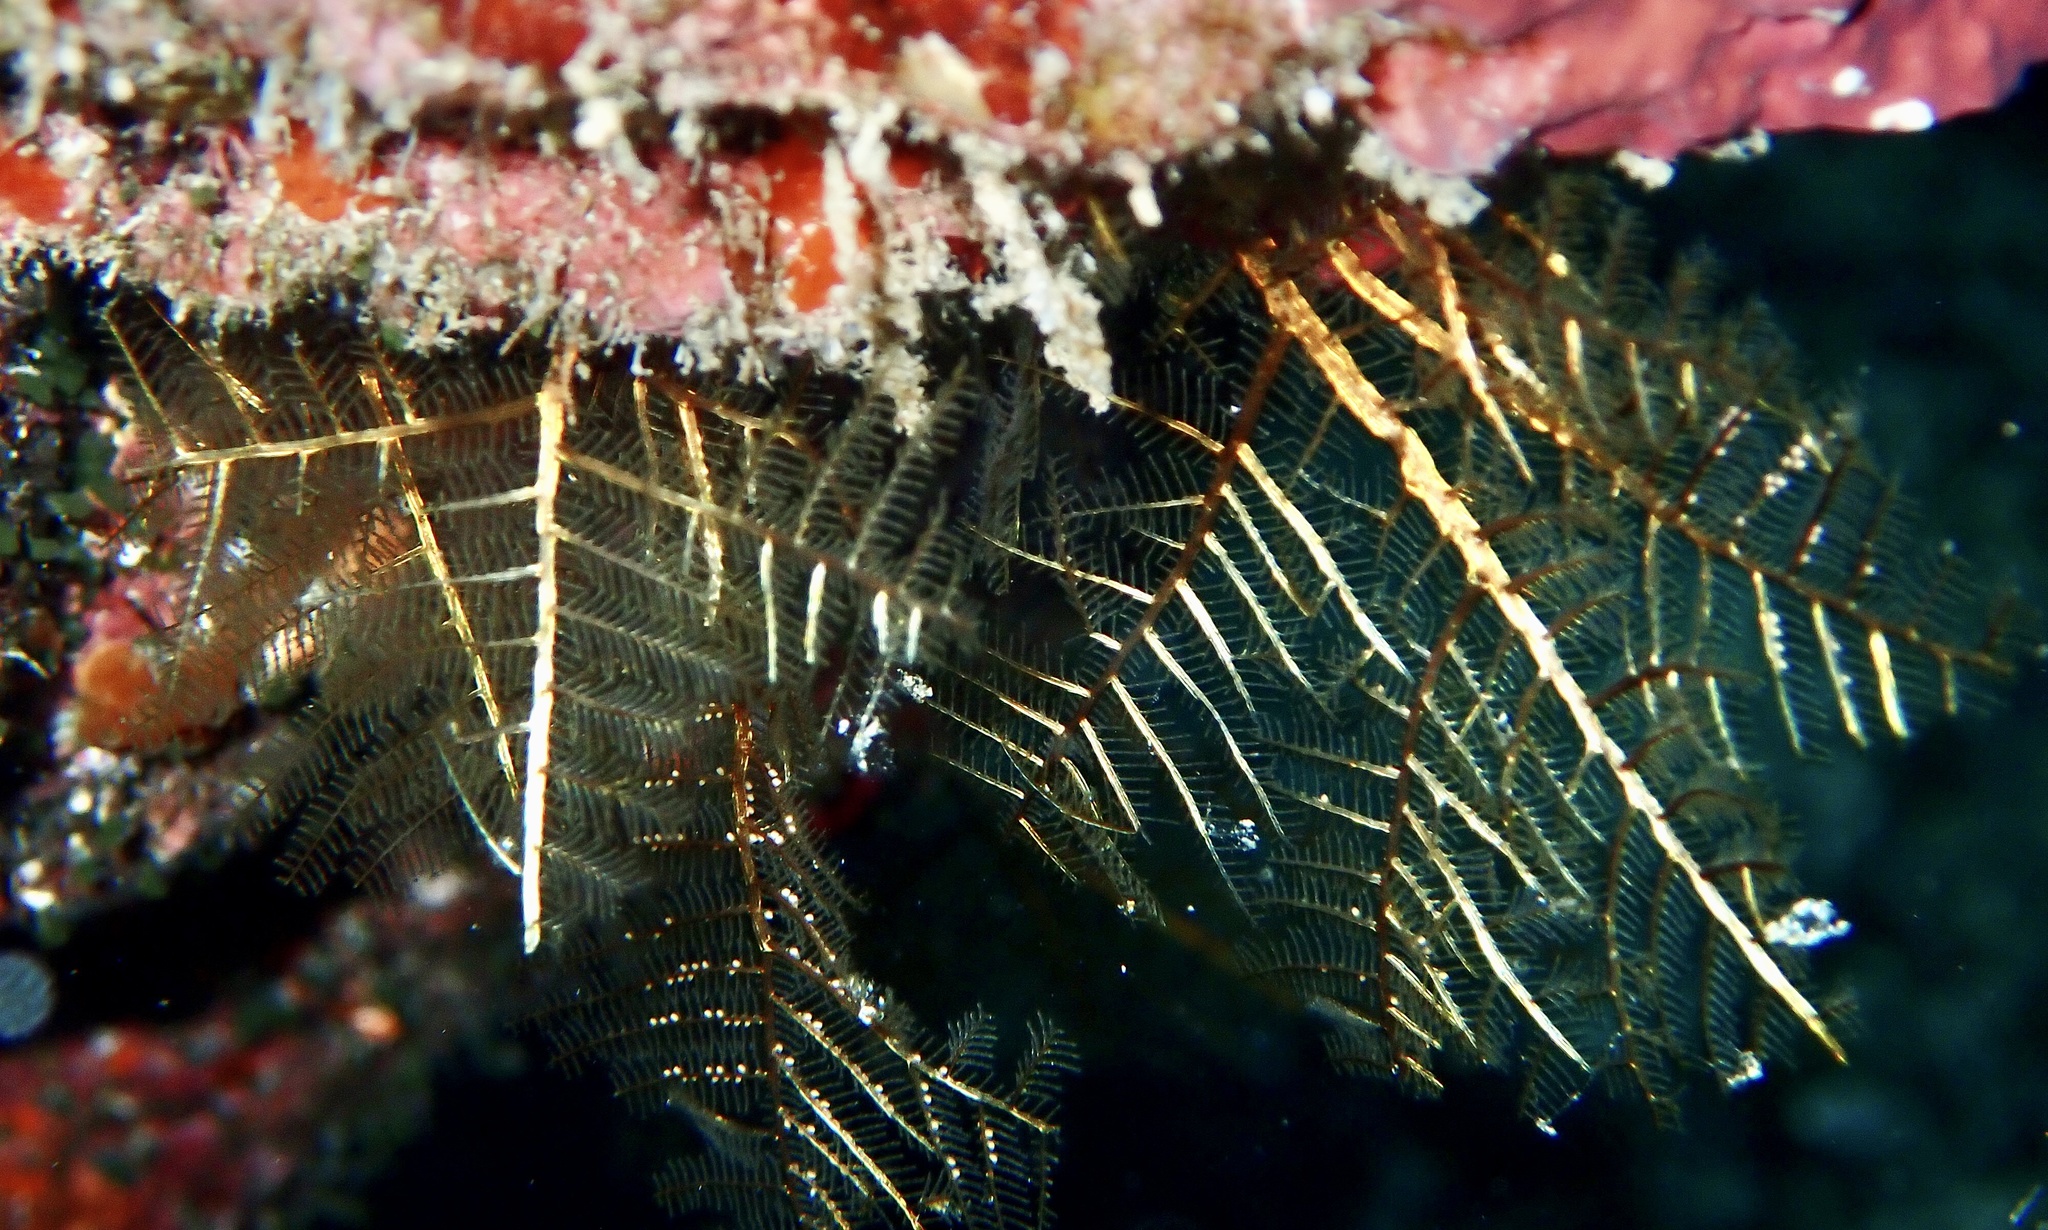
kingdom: Animalia
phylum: Cnidaria
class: Hydrozoa
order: Leptothecata
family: Aglaopheniidae
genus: Macrorhynchia
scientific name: Macrorhynchia phoenicea
